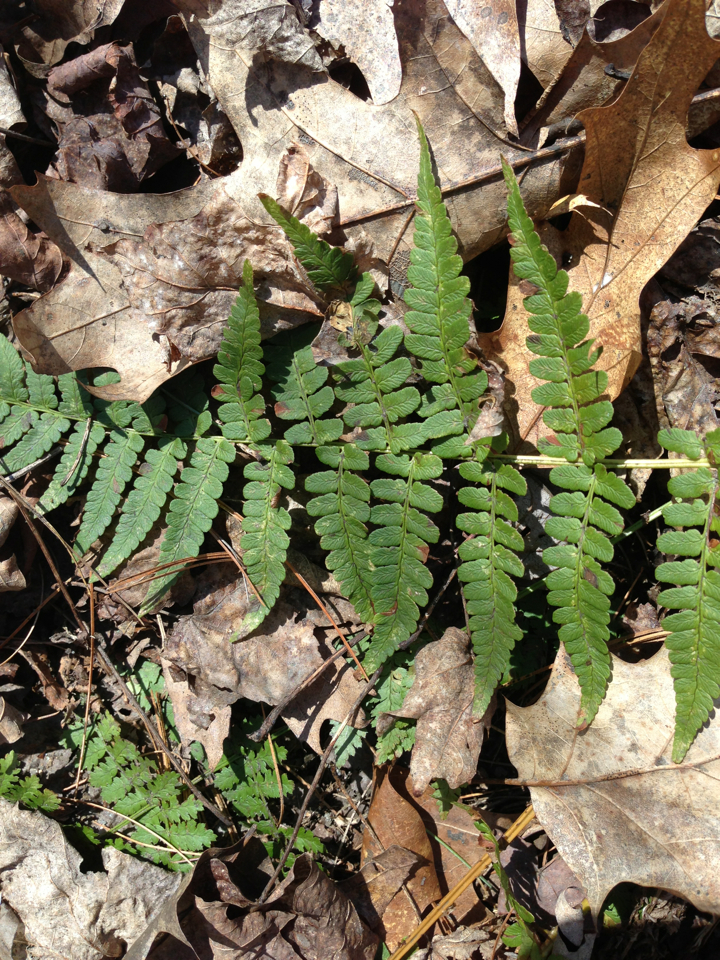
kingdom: Plantae
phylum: Tracheophyta
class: Polypodiopsida
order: Polypodiales
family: Dryopteridaceae
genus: Dryopteris
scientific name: Dryopteris marginalis
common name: Marginal wood fern
